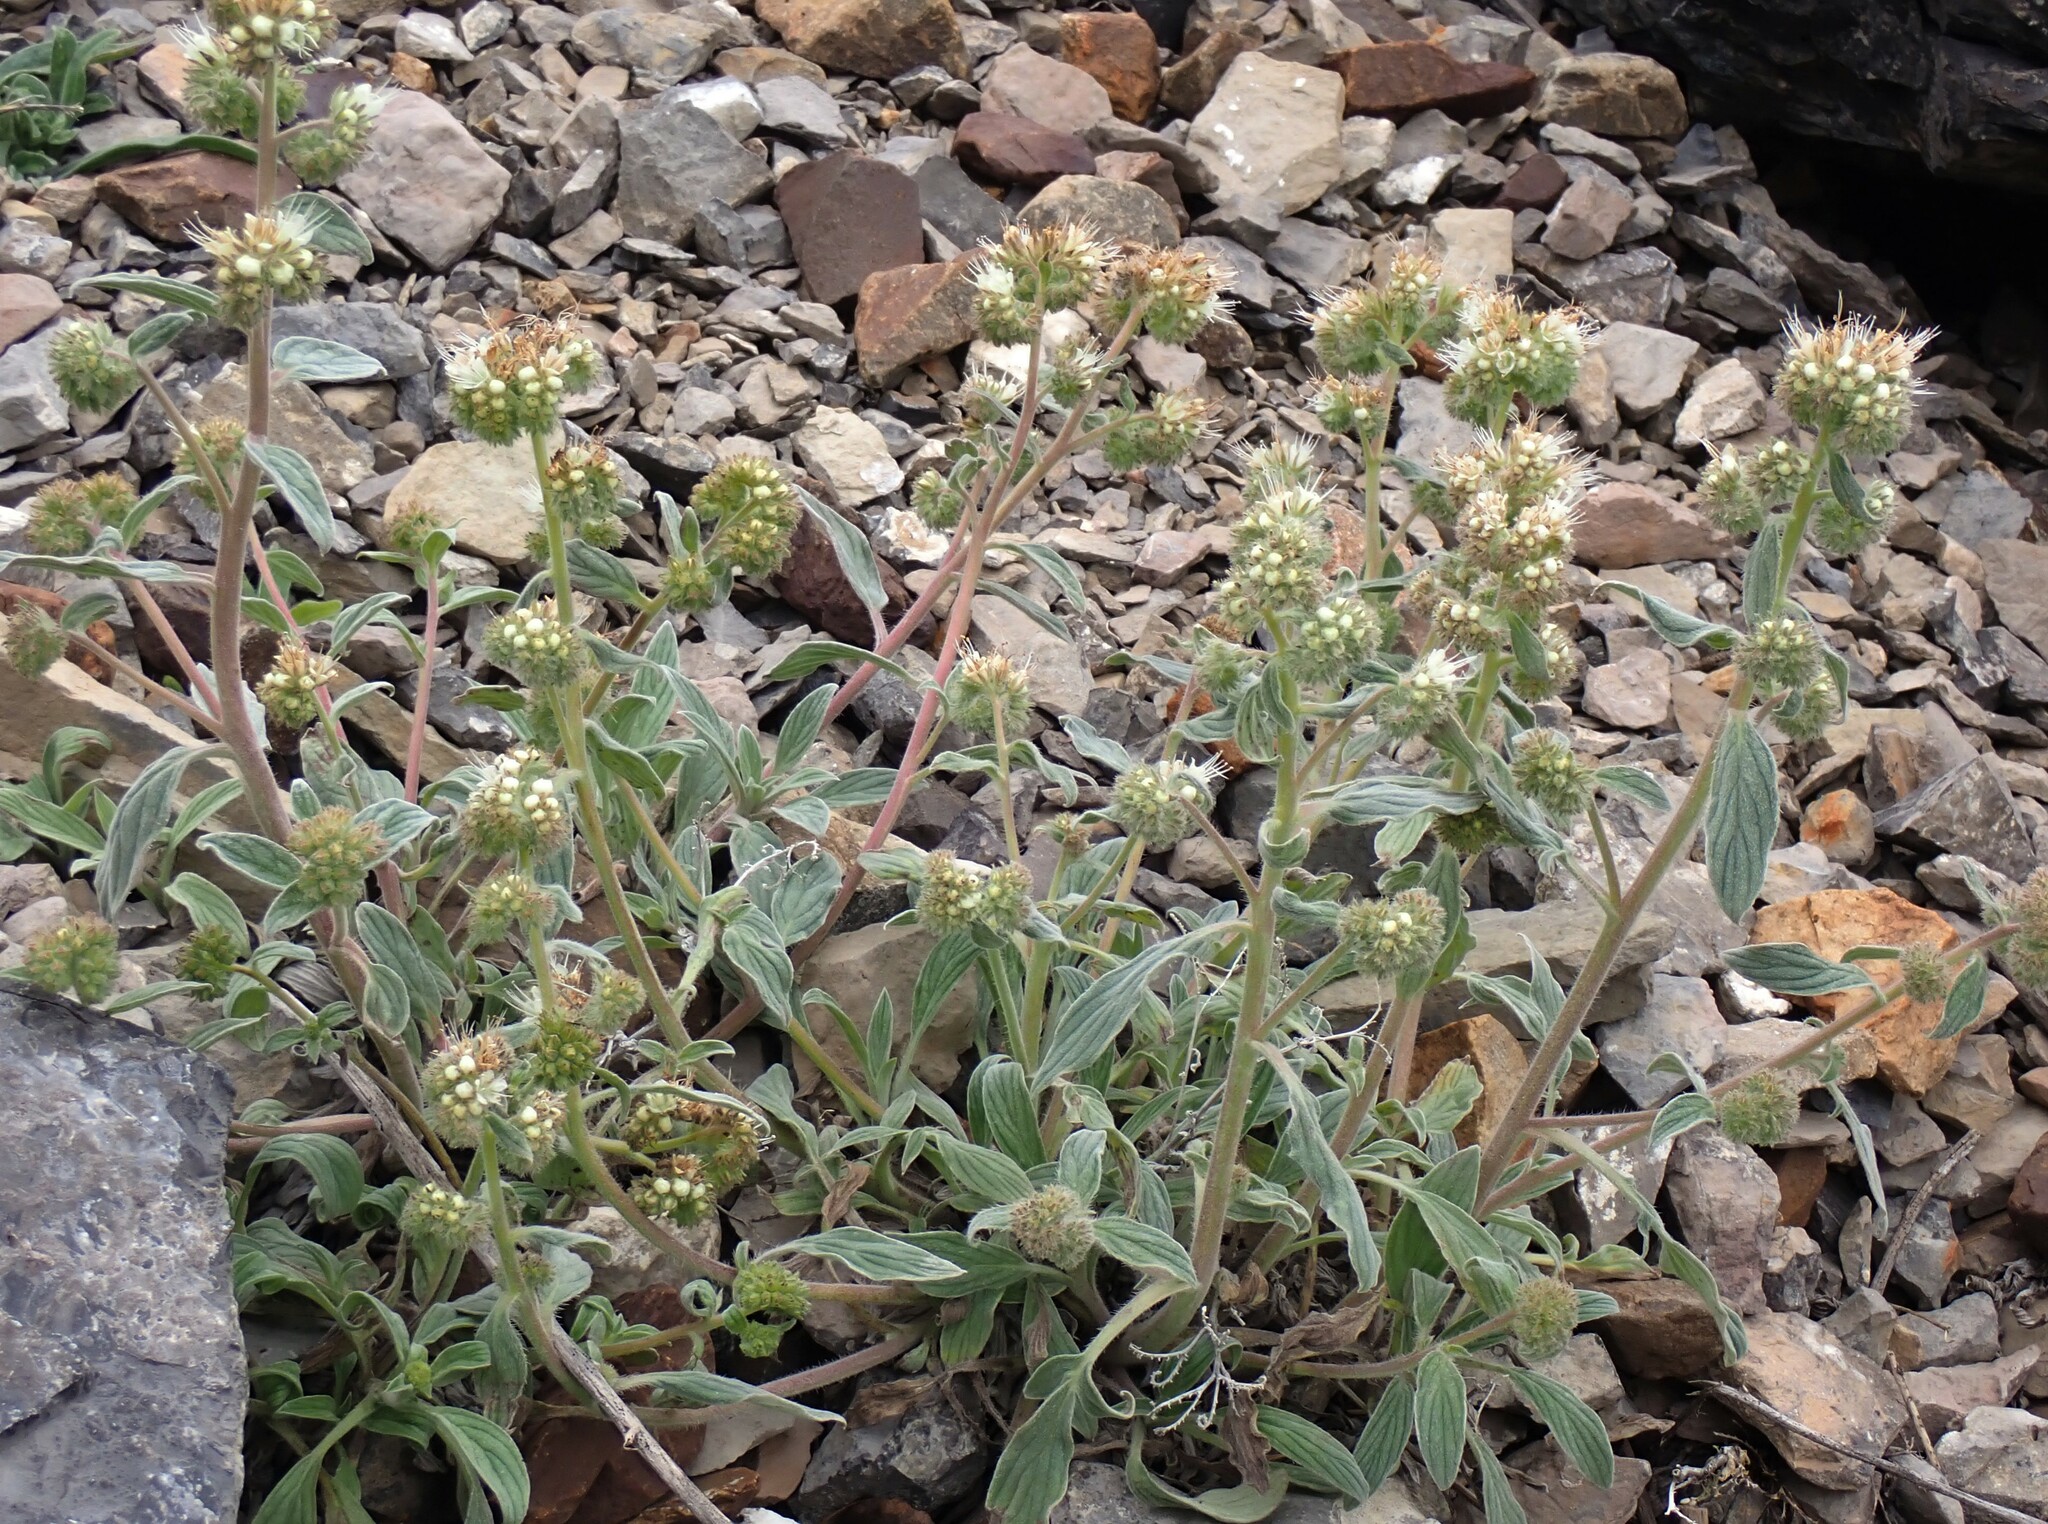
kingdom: Plantae
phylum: Tracheophyta
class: Magnoliopsida
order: Boraginales
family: Hydrophyllaceae
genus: Phacelia
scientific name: Phacelia hastata
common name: Silver-leaved phacelia
